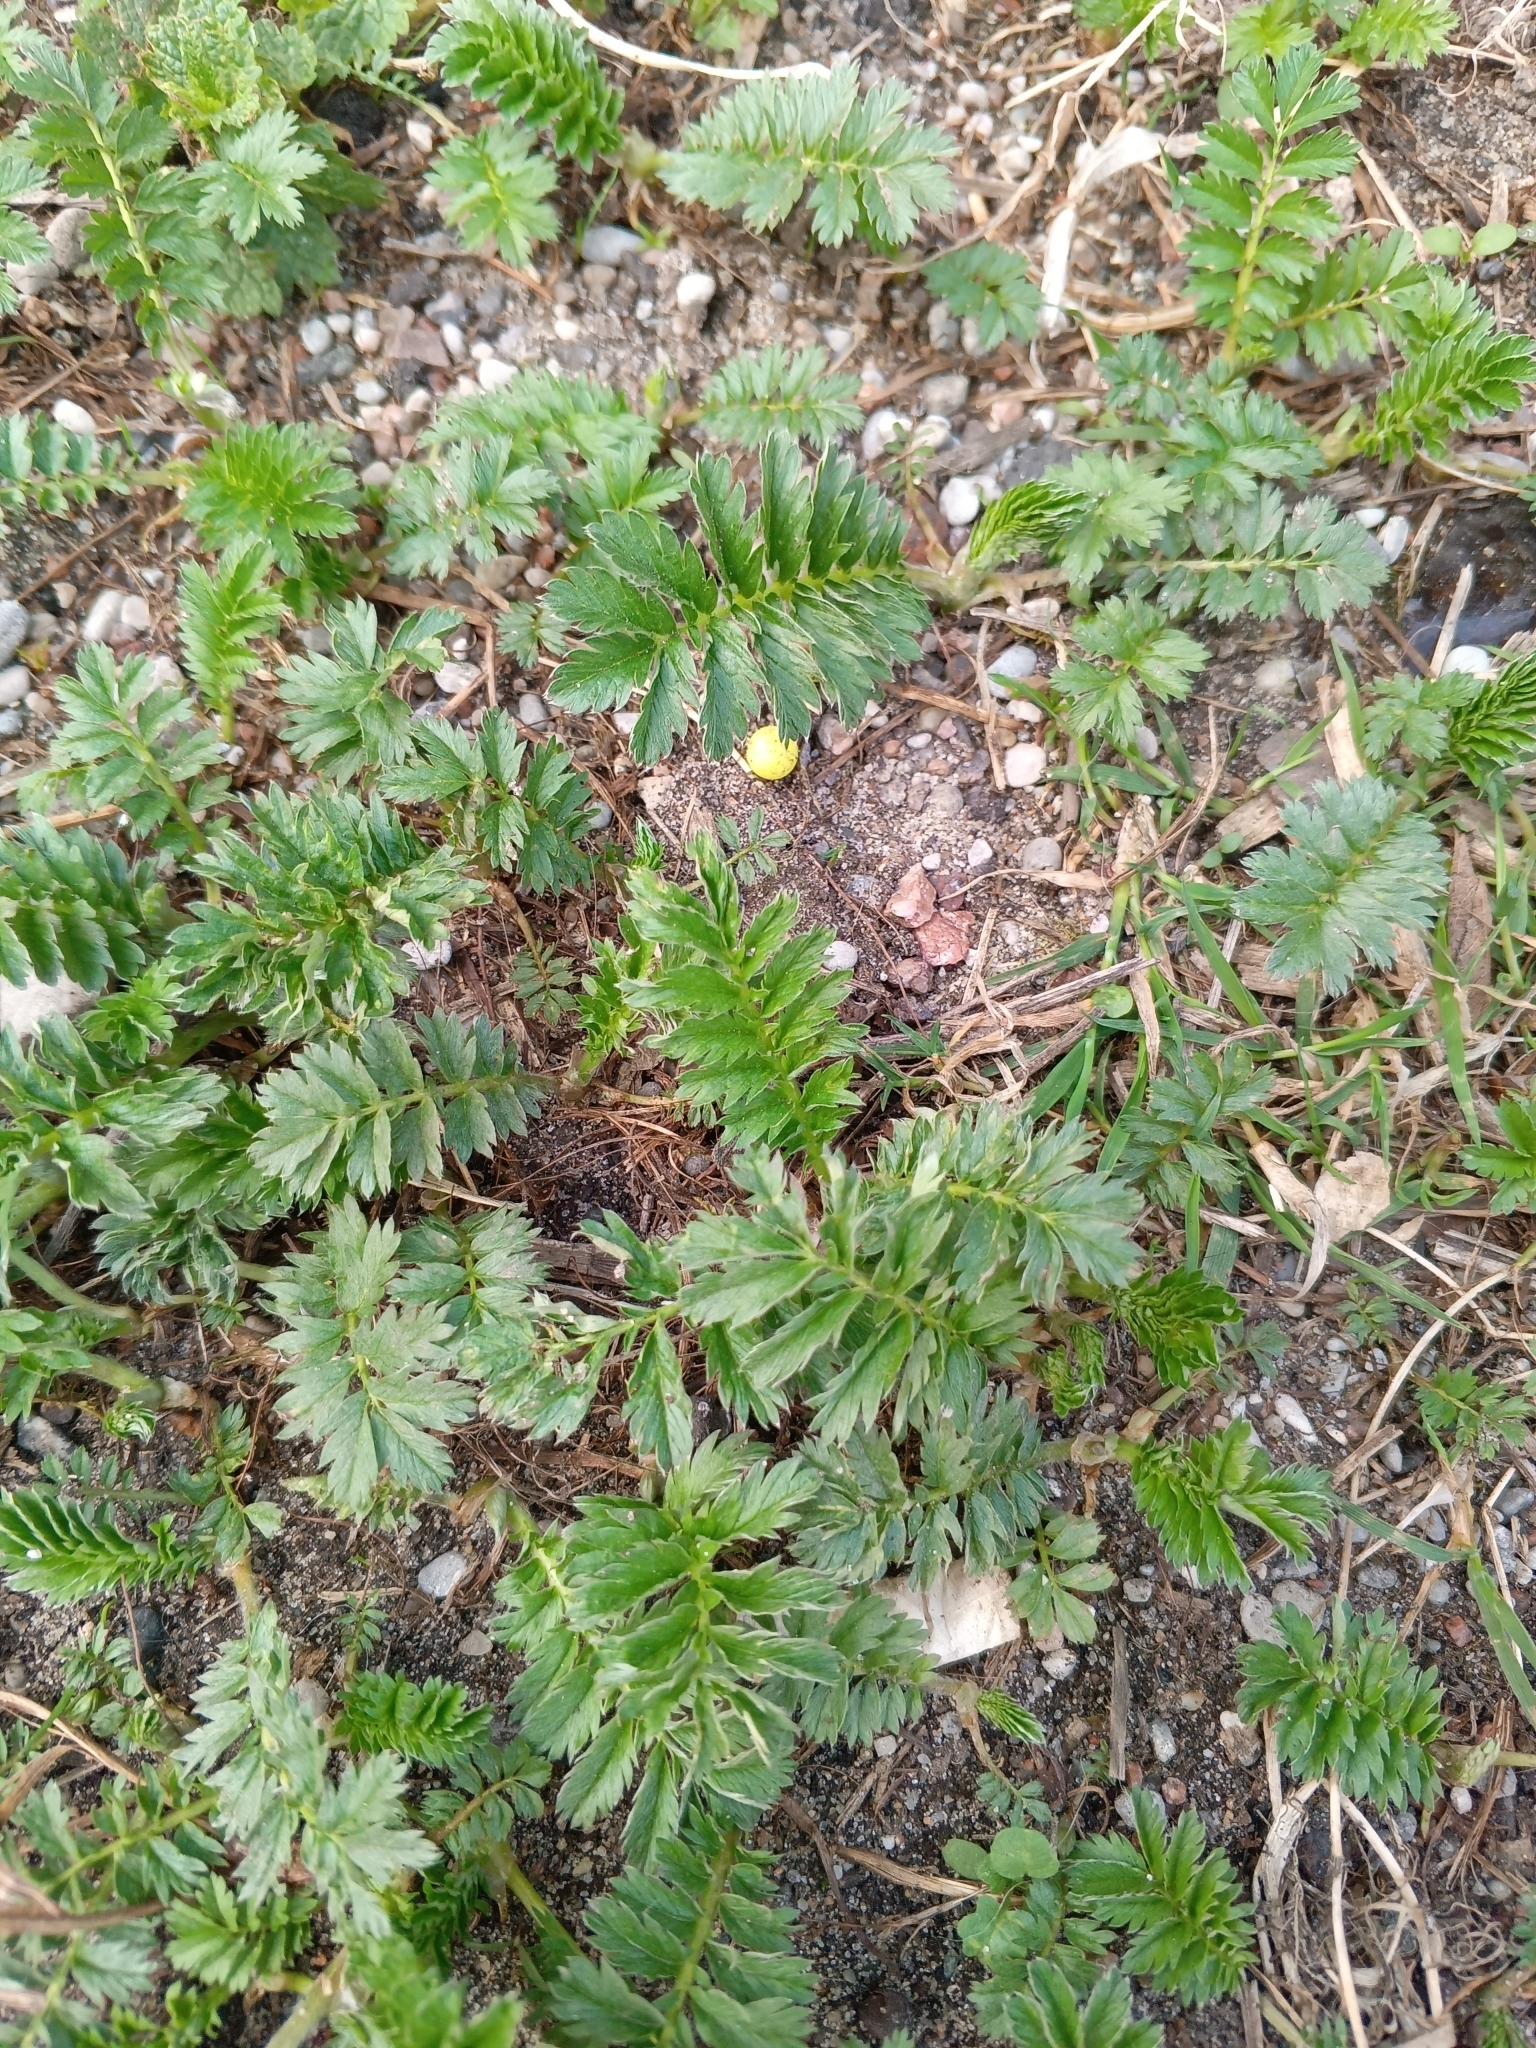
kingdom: Plantae
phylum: Tracheophyta
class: Magnoliopsida
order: Rosales
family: Rosaceae
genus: Argentina
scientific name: Argentina anserina
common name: Common silverweed
